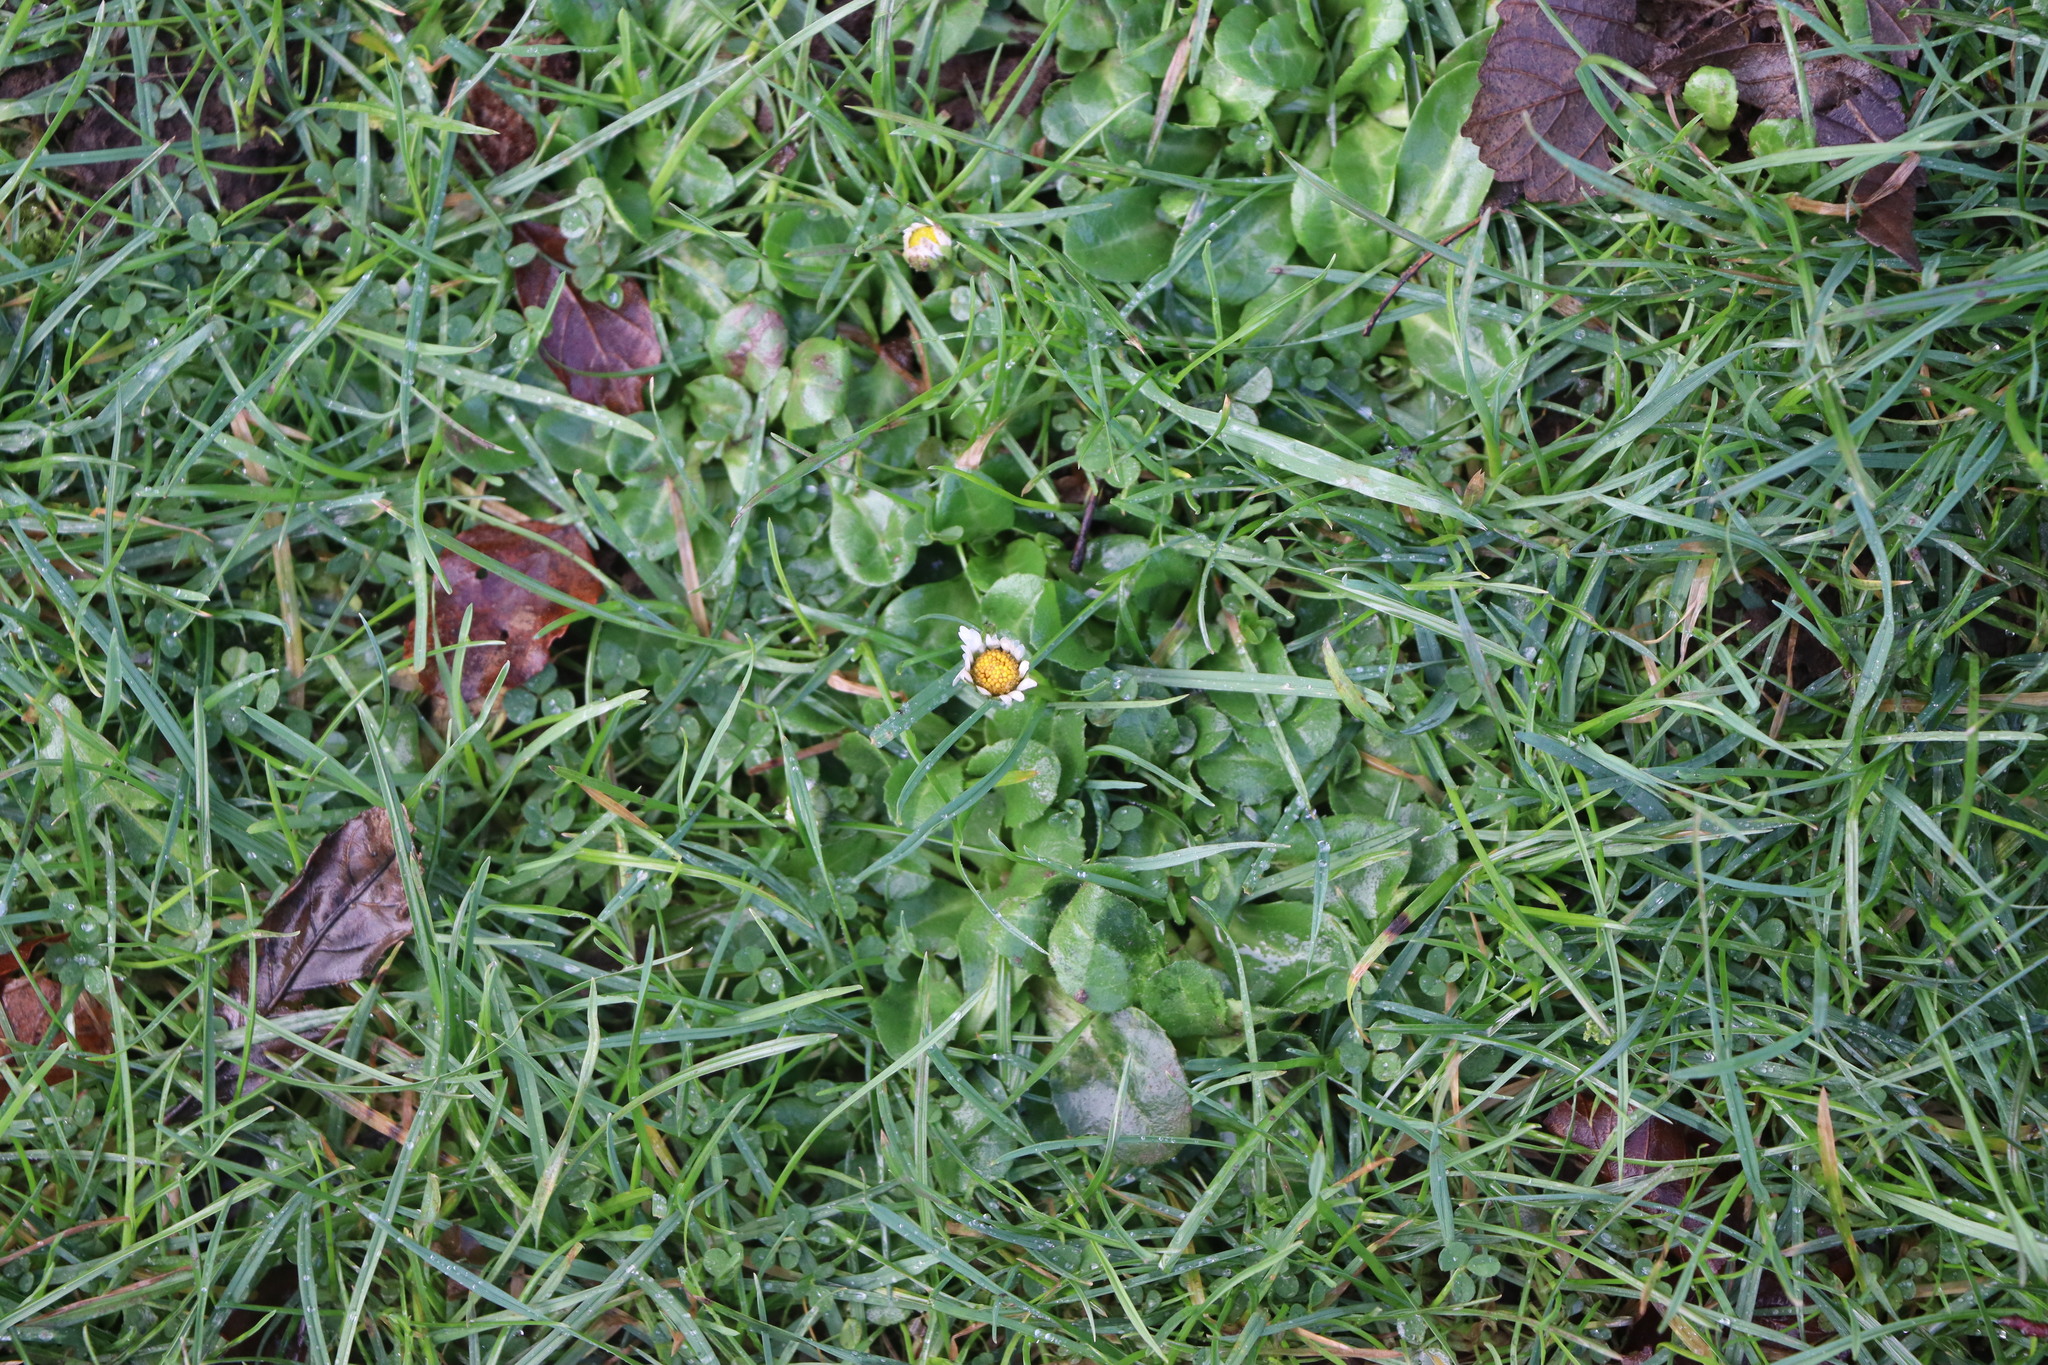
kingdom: Plantae
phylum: Tracheophyta
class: Magnoliopsida
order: Asterales
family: Asteraceae
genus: Bellis
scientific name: Bellis perennis
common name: Lawndaisy
